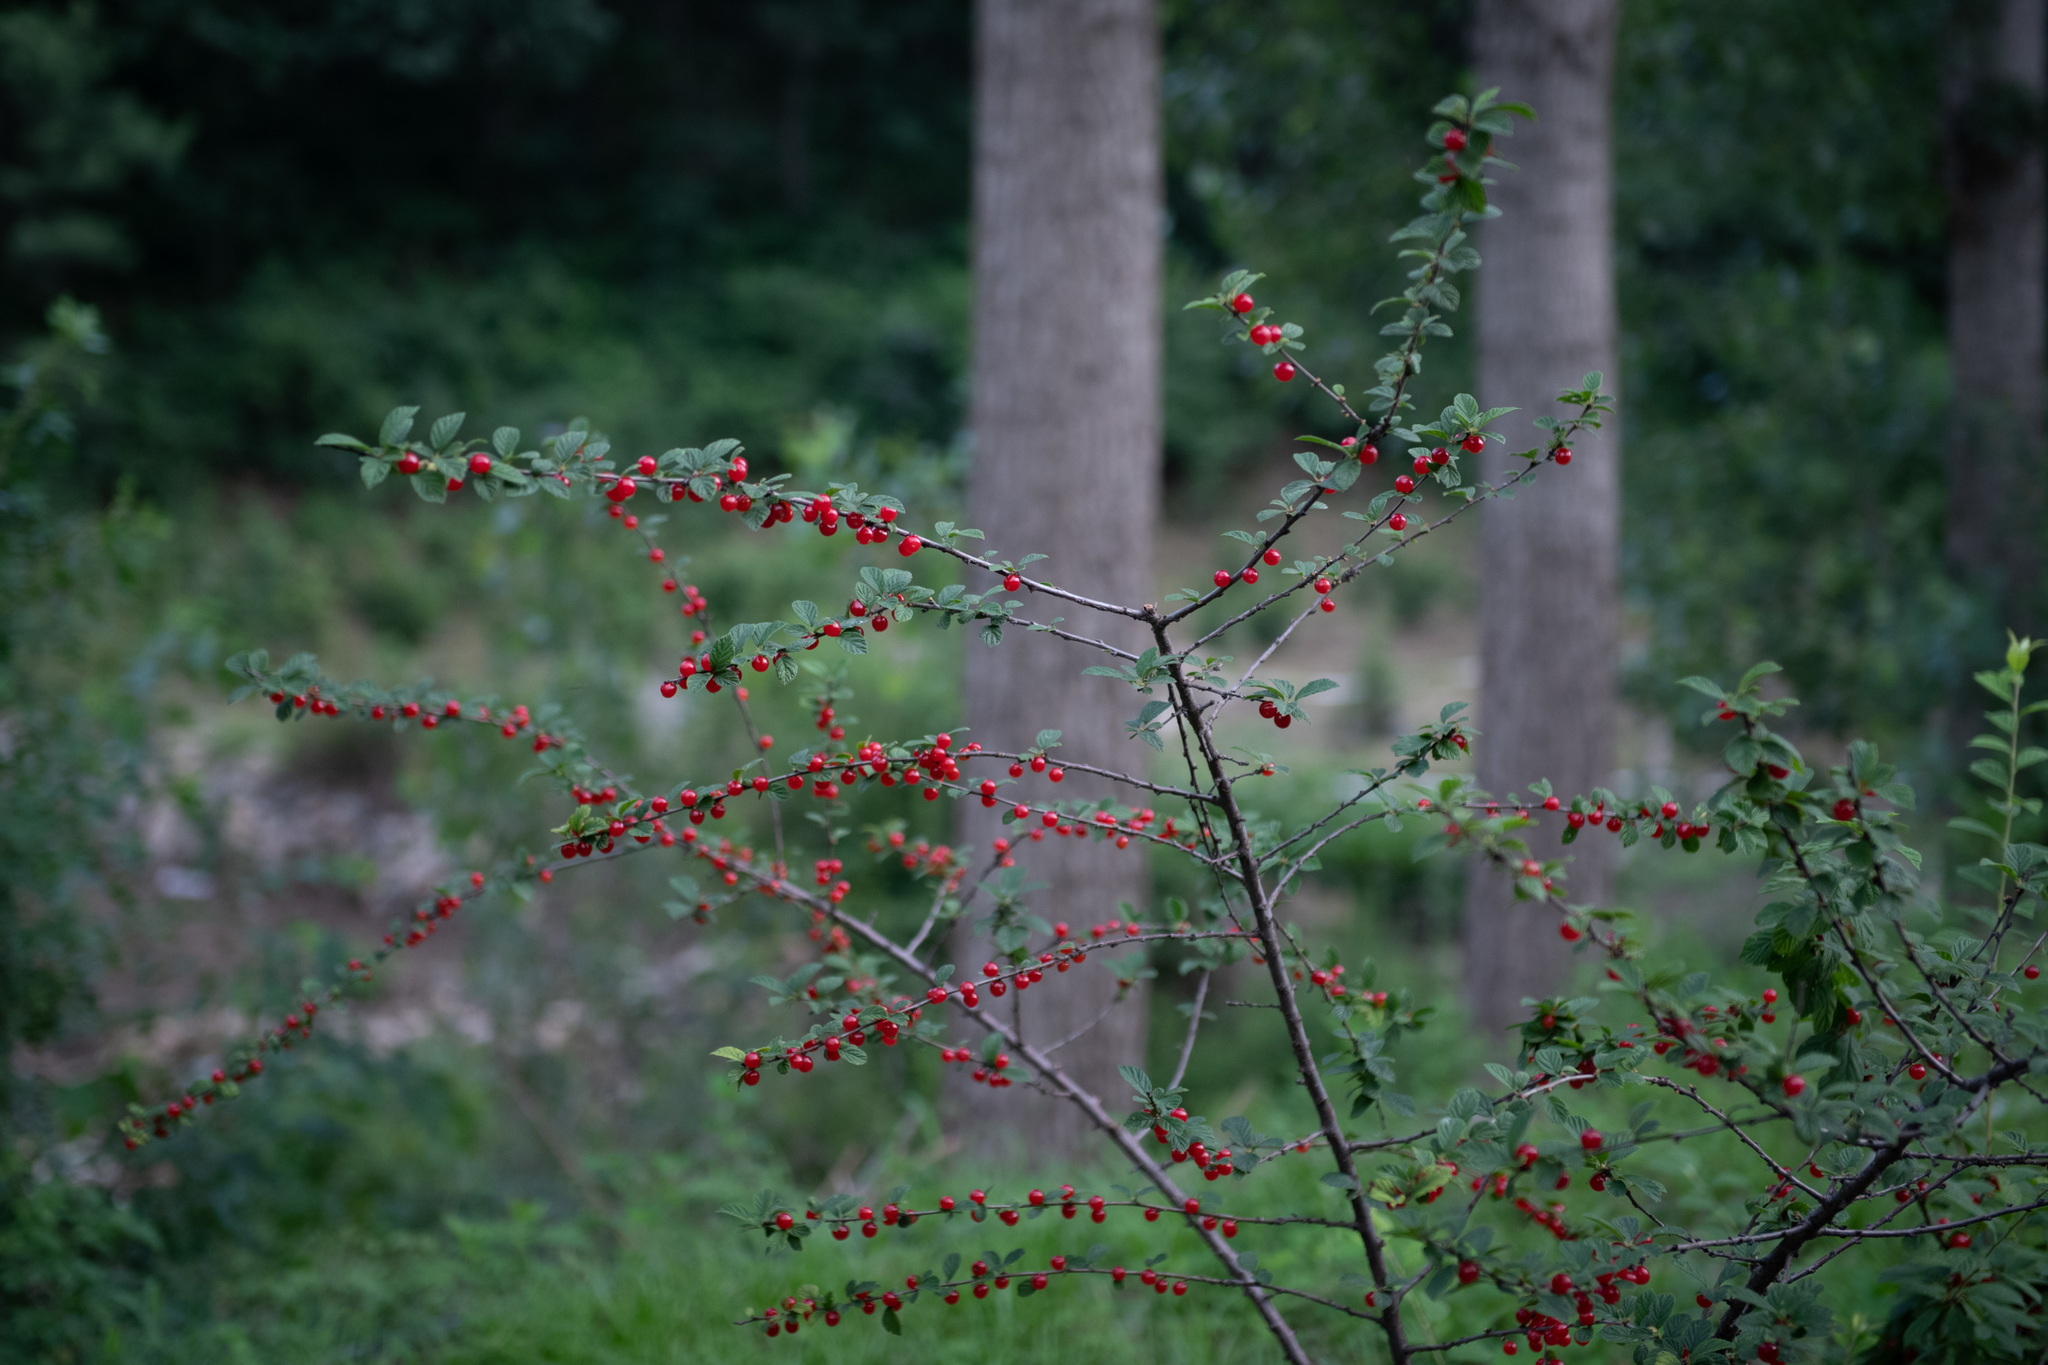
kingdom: Plantae
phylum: Tracheophyta
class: Magnoliopsida
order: Rosales
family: Rosaceae
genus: Prunus
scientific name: Prunus tomentosa
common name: Nanking cherry
